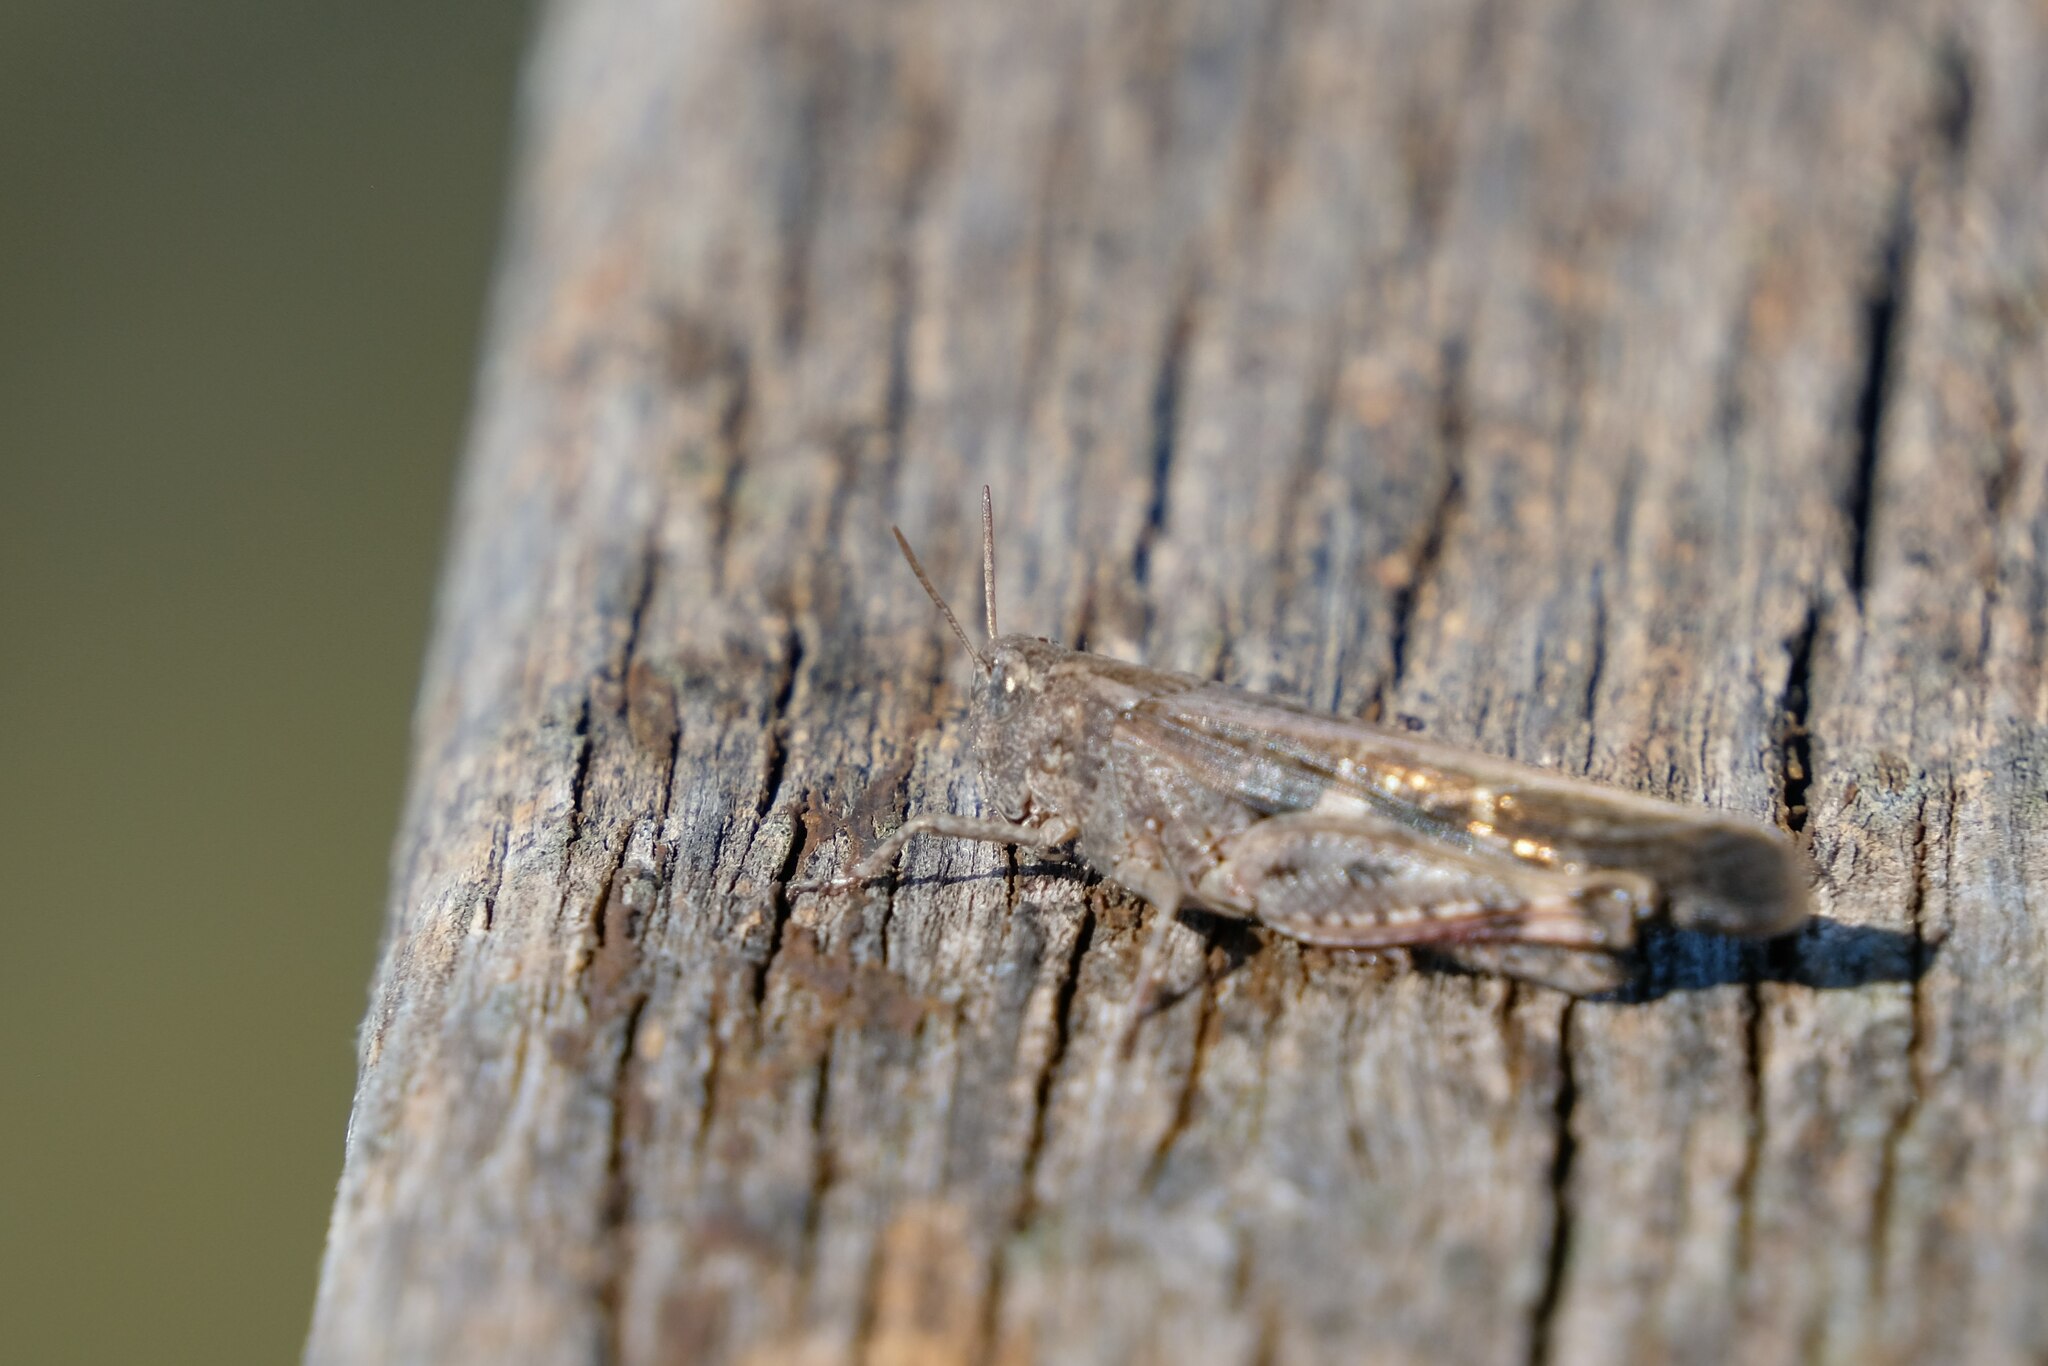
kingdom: Animalia
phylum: Arthropoda
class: Insecta
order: Orthoptera
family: Acrididae
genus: Aiolopus
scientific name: Aiolopus strepens
